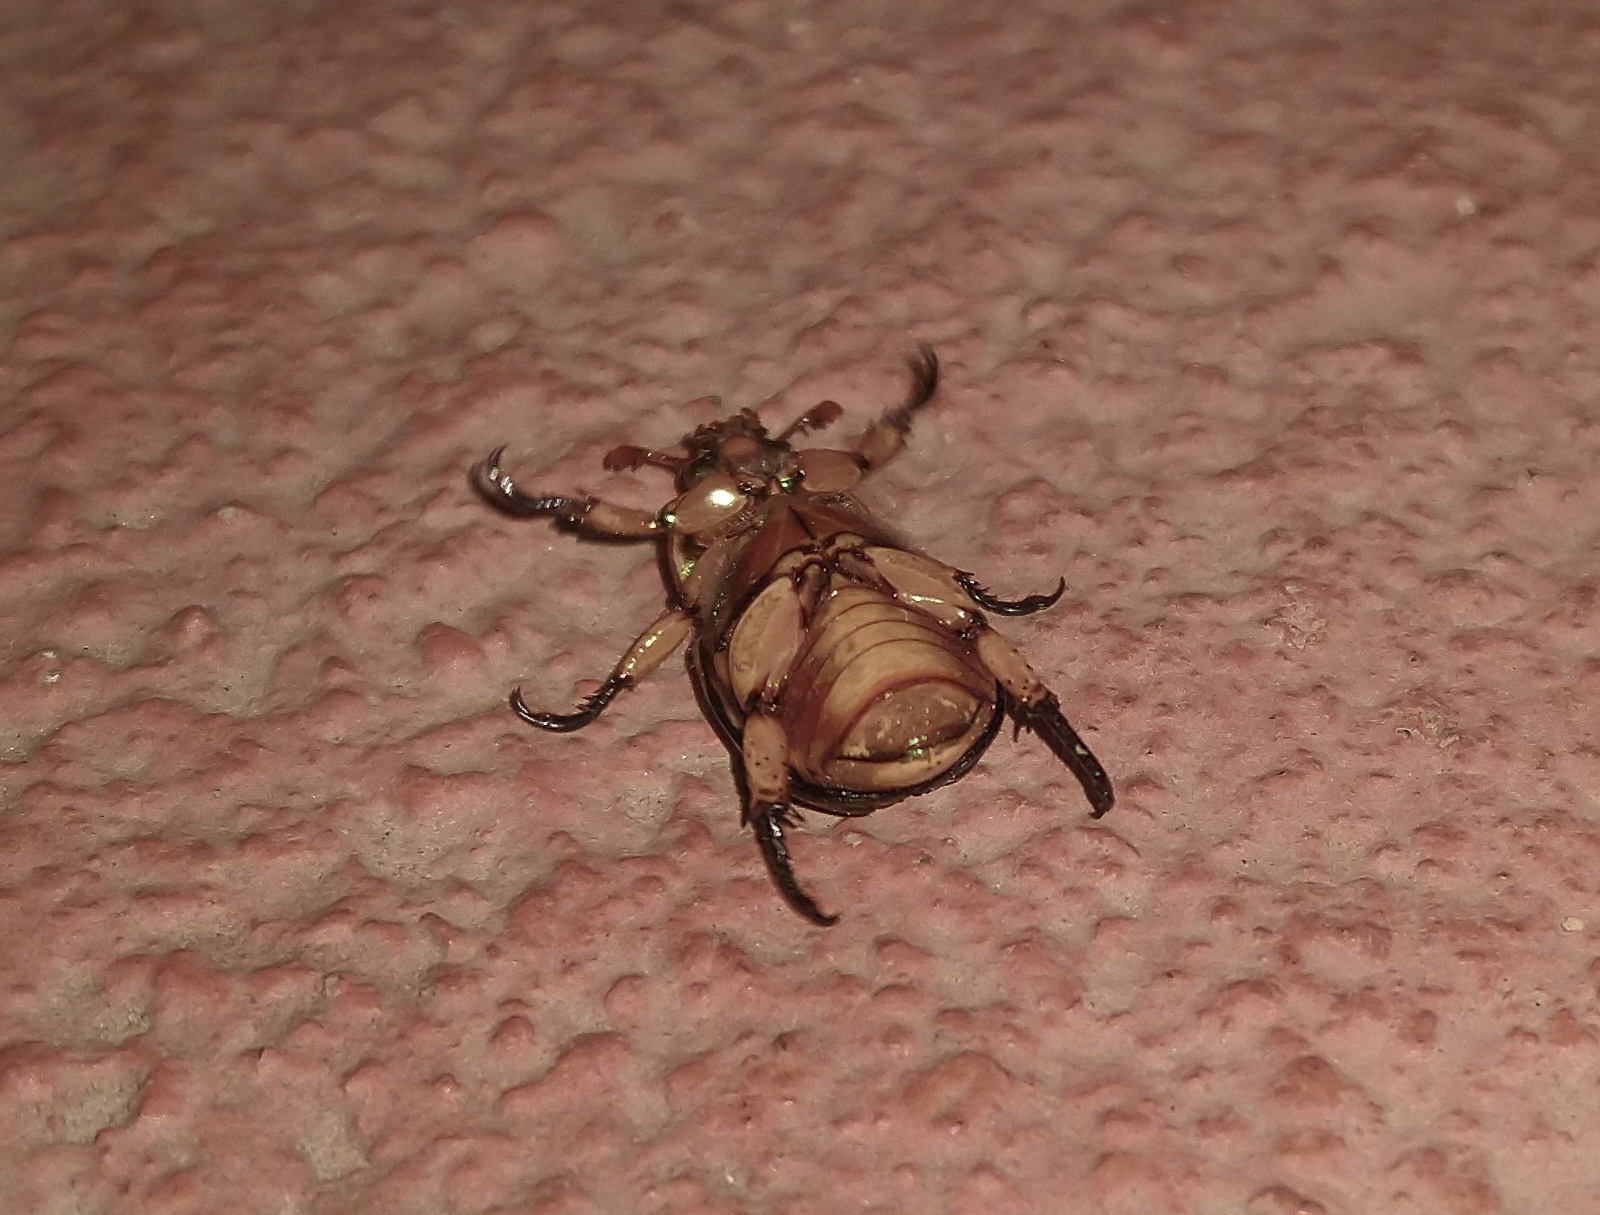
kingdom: Animalia
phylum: Arthropoda
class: Insecta
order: Coleoptera
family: Scarabaeidae
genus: Pelidnota
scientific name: Pelidnota pulchella
